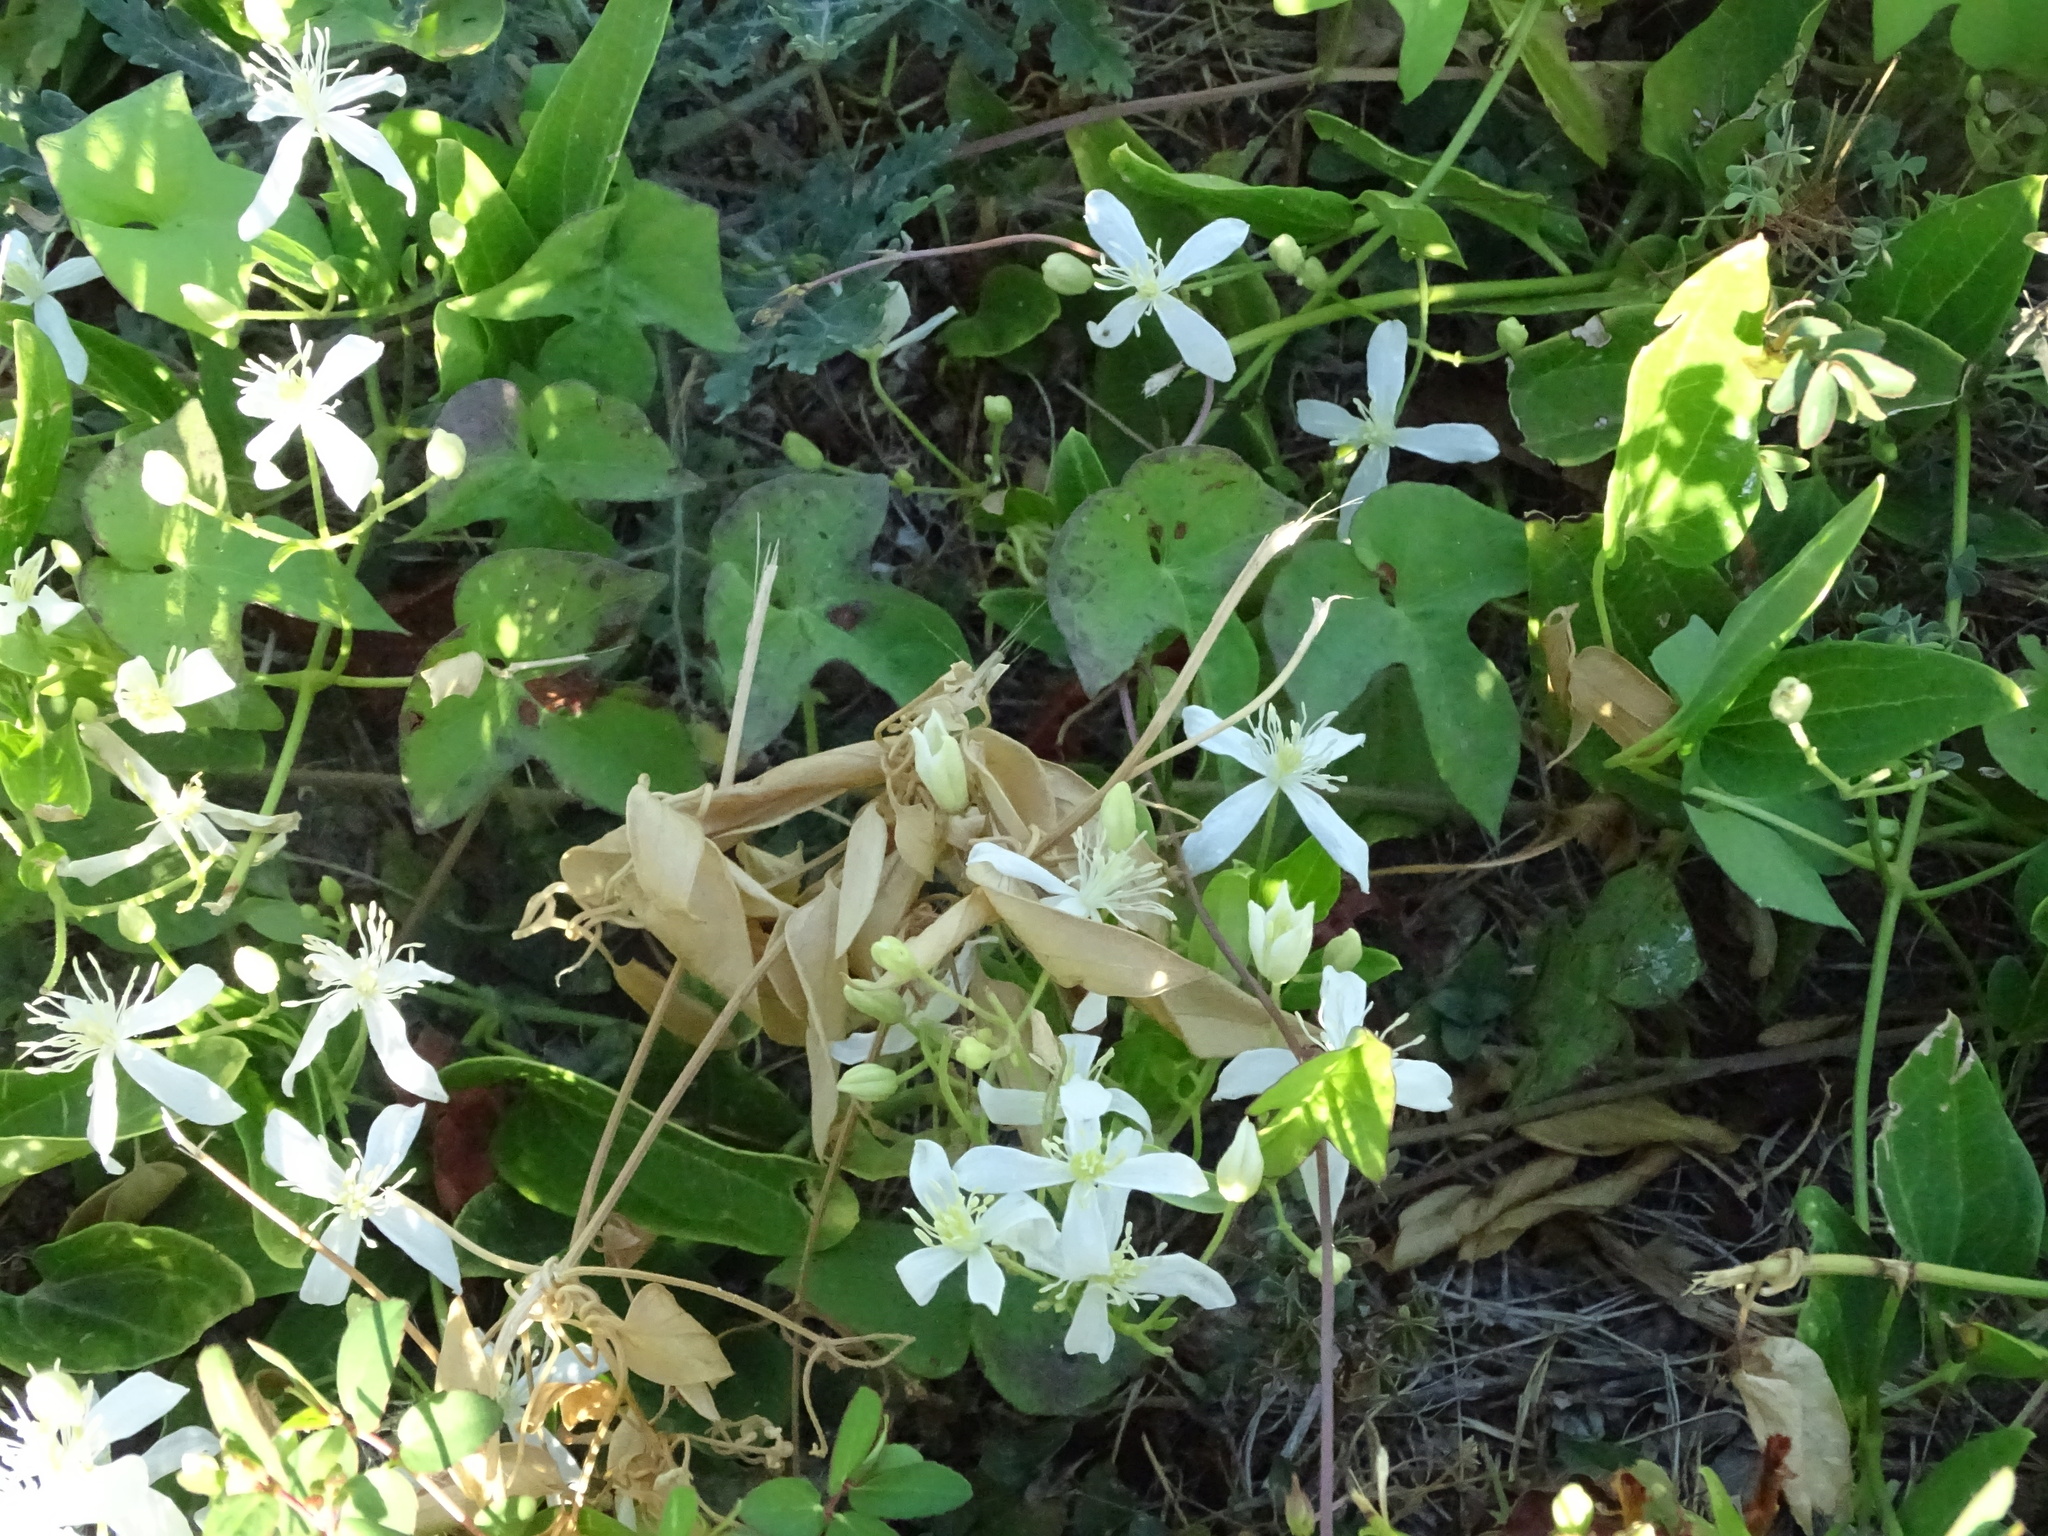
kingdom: Plantae
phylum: Tracheophyta
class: Magnoliopsida
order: Ranunculales
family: Ranunculaceae
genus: Clematis
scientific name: Clematis terniflora
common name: Sweet autumn clematis
